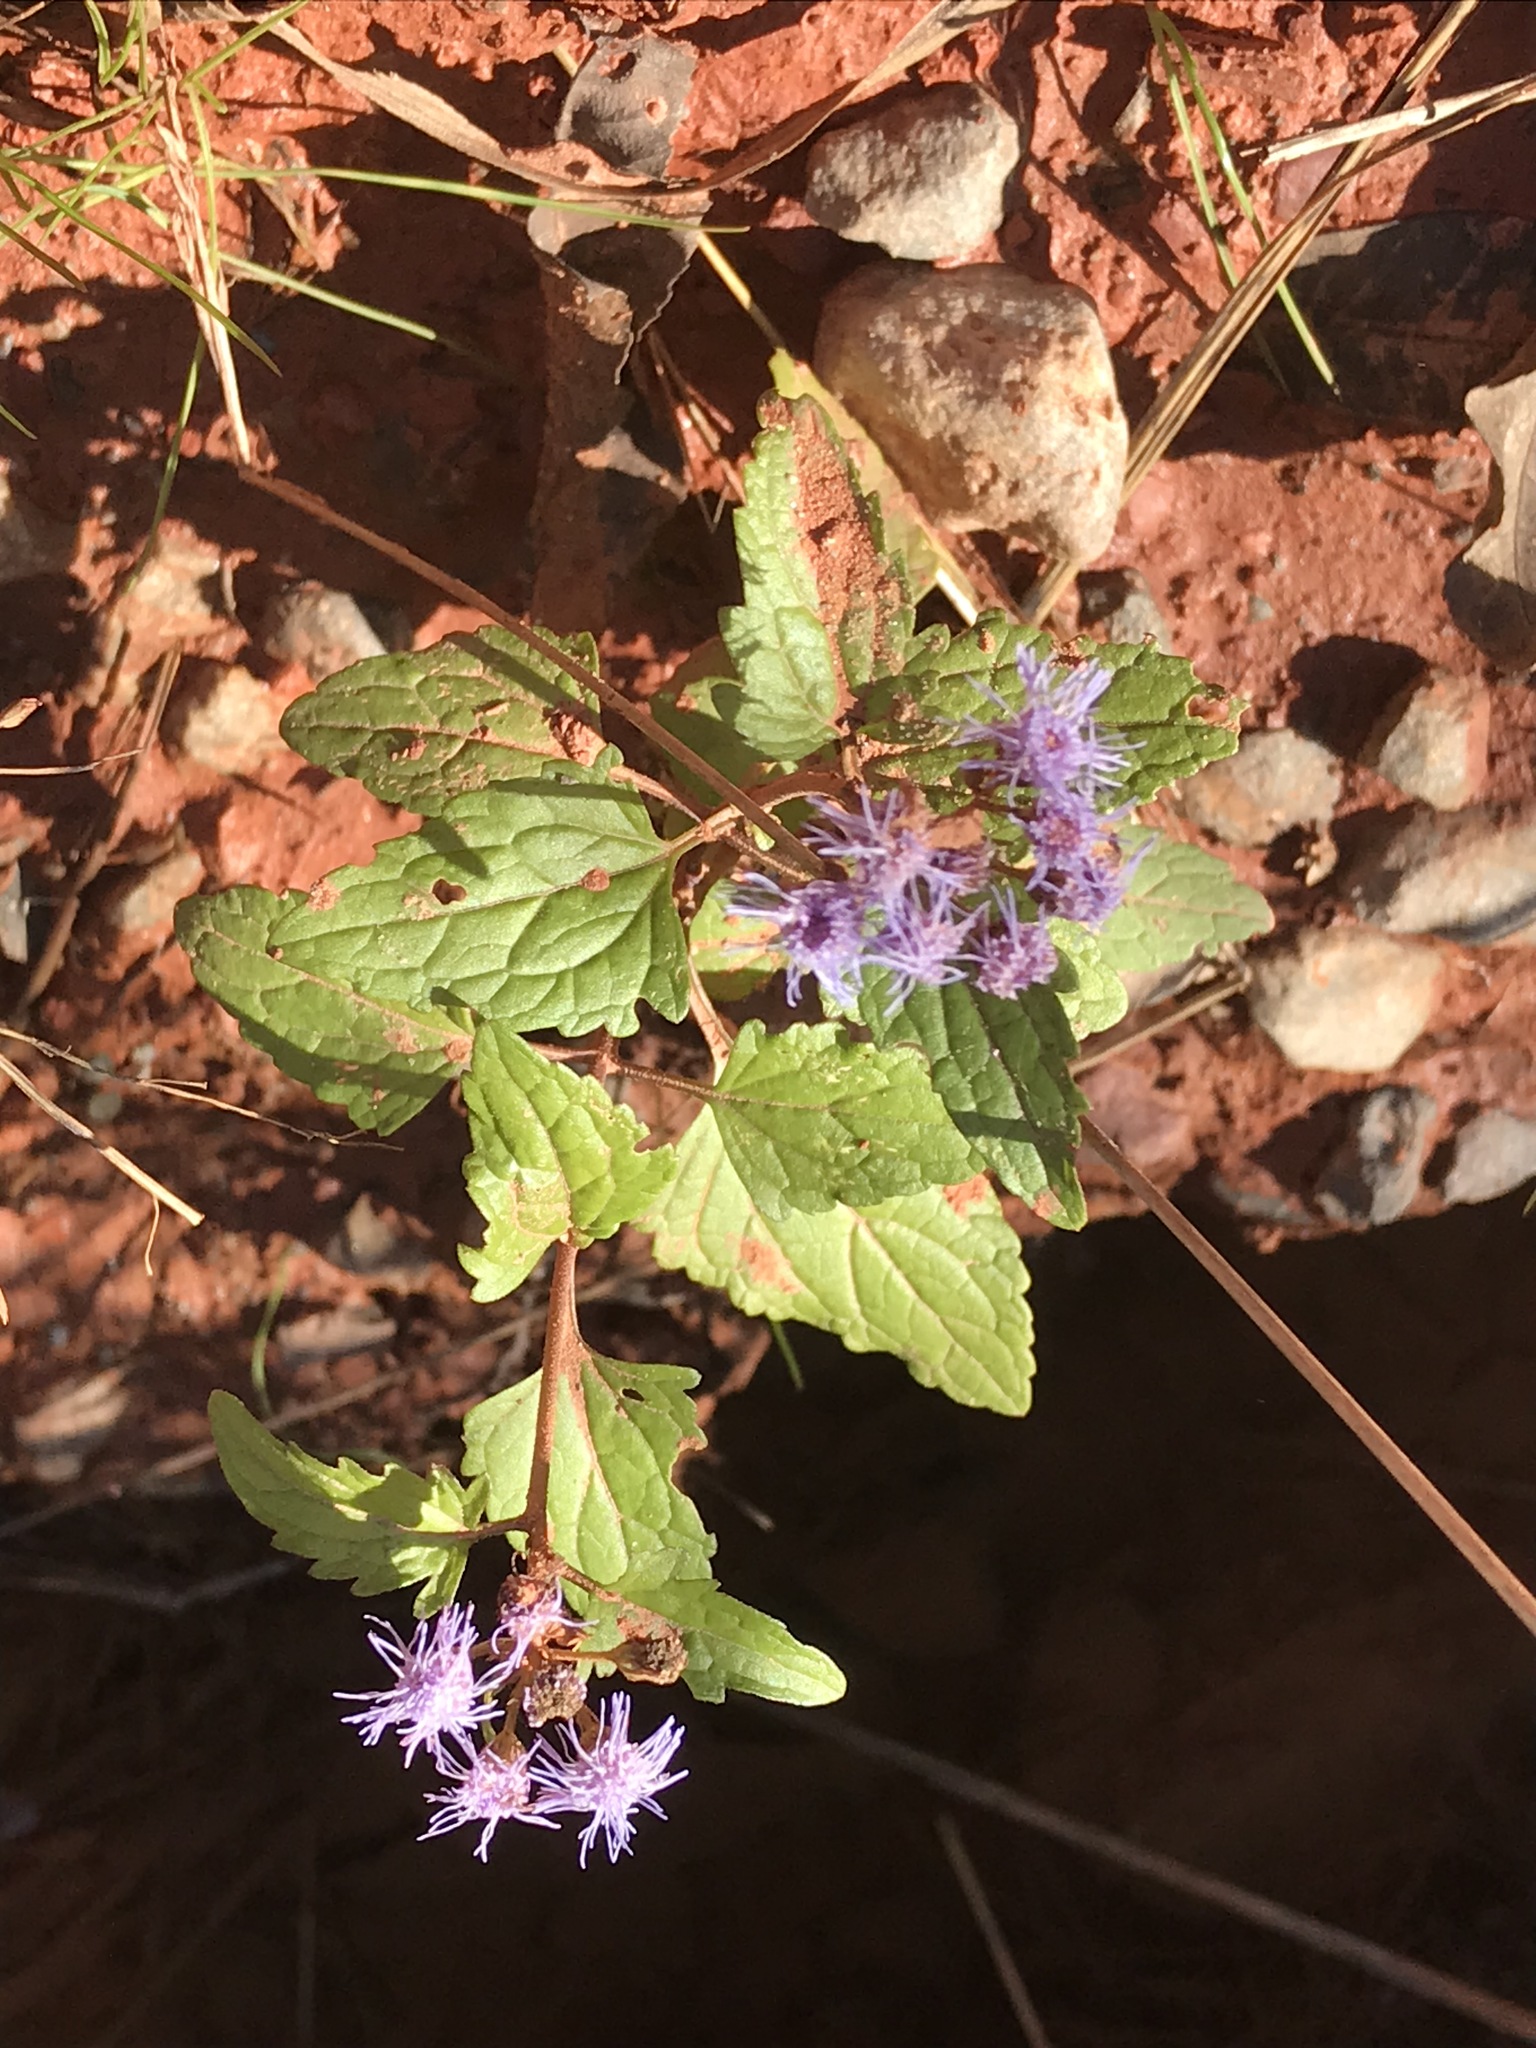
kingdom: Plantae
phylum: Tracheophyta
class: Magnoliopsida
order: Asterales
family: Asteraceae
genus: Conoclinium
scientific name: Conoclinium coelestinum
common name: Blue mistflower
